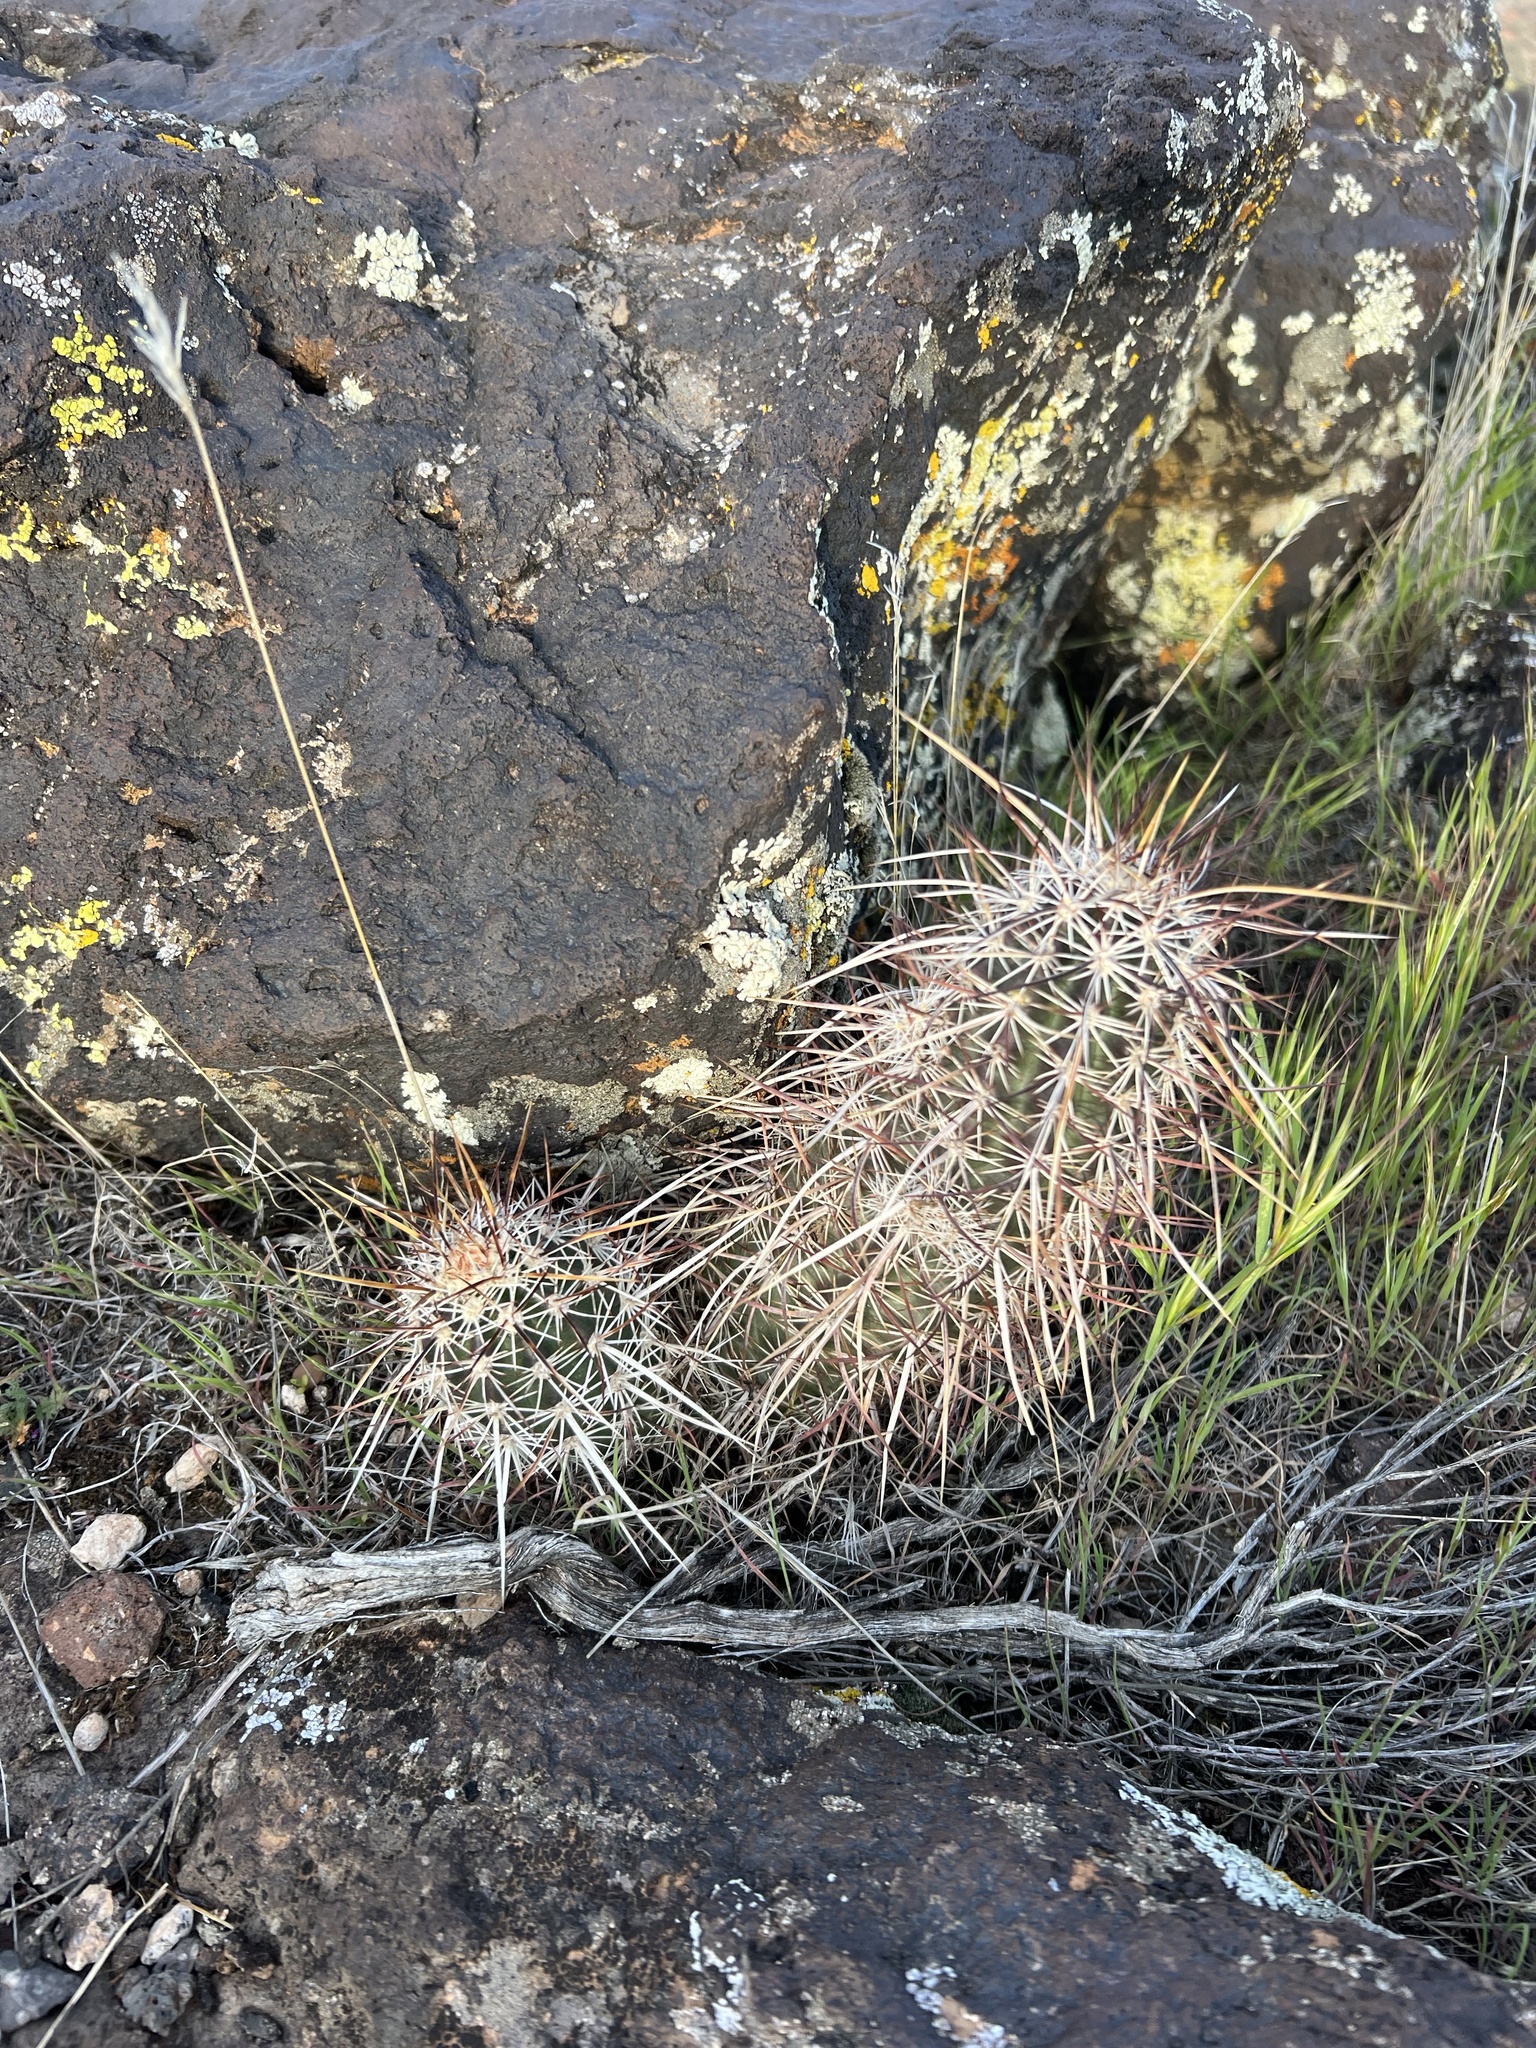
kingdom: Plantae
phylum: Tracheophyta
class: Magnoliopsida
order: Caryophyllales
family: Cactaceae
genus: Echinocereus
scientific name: Echinocereus relictus
